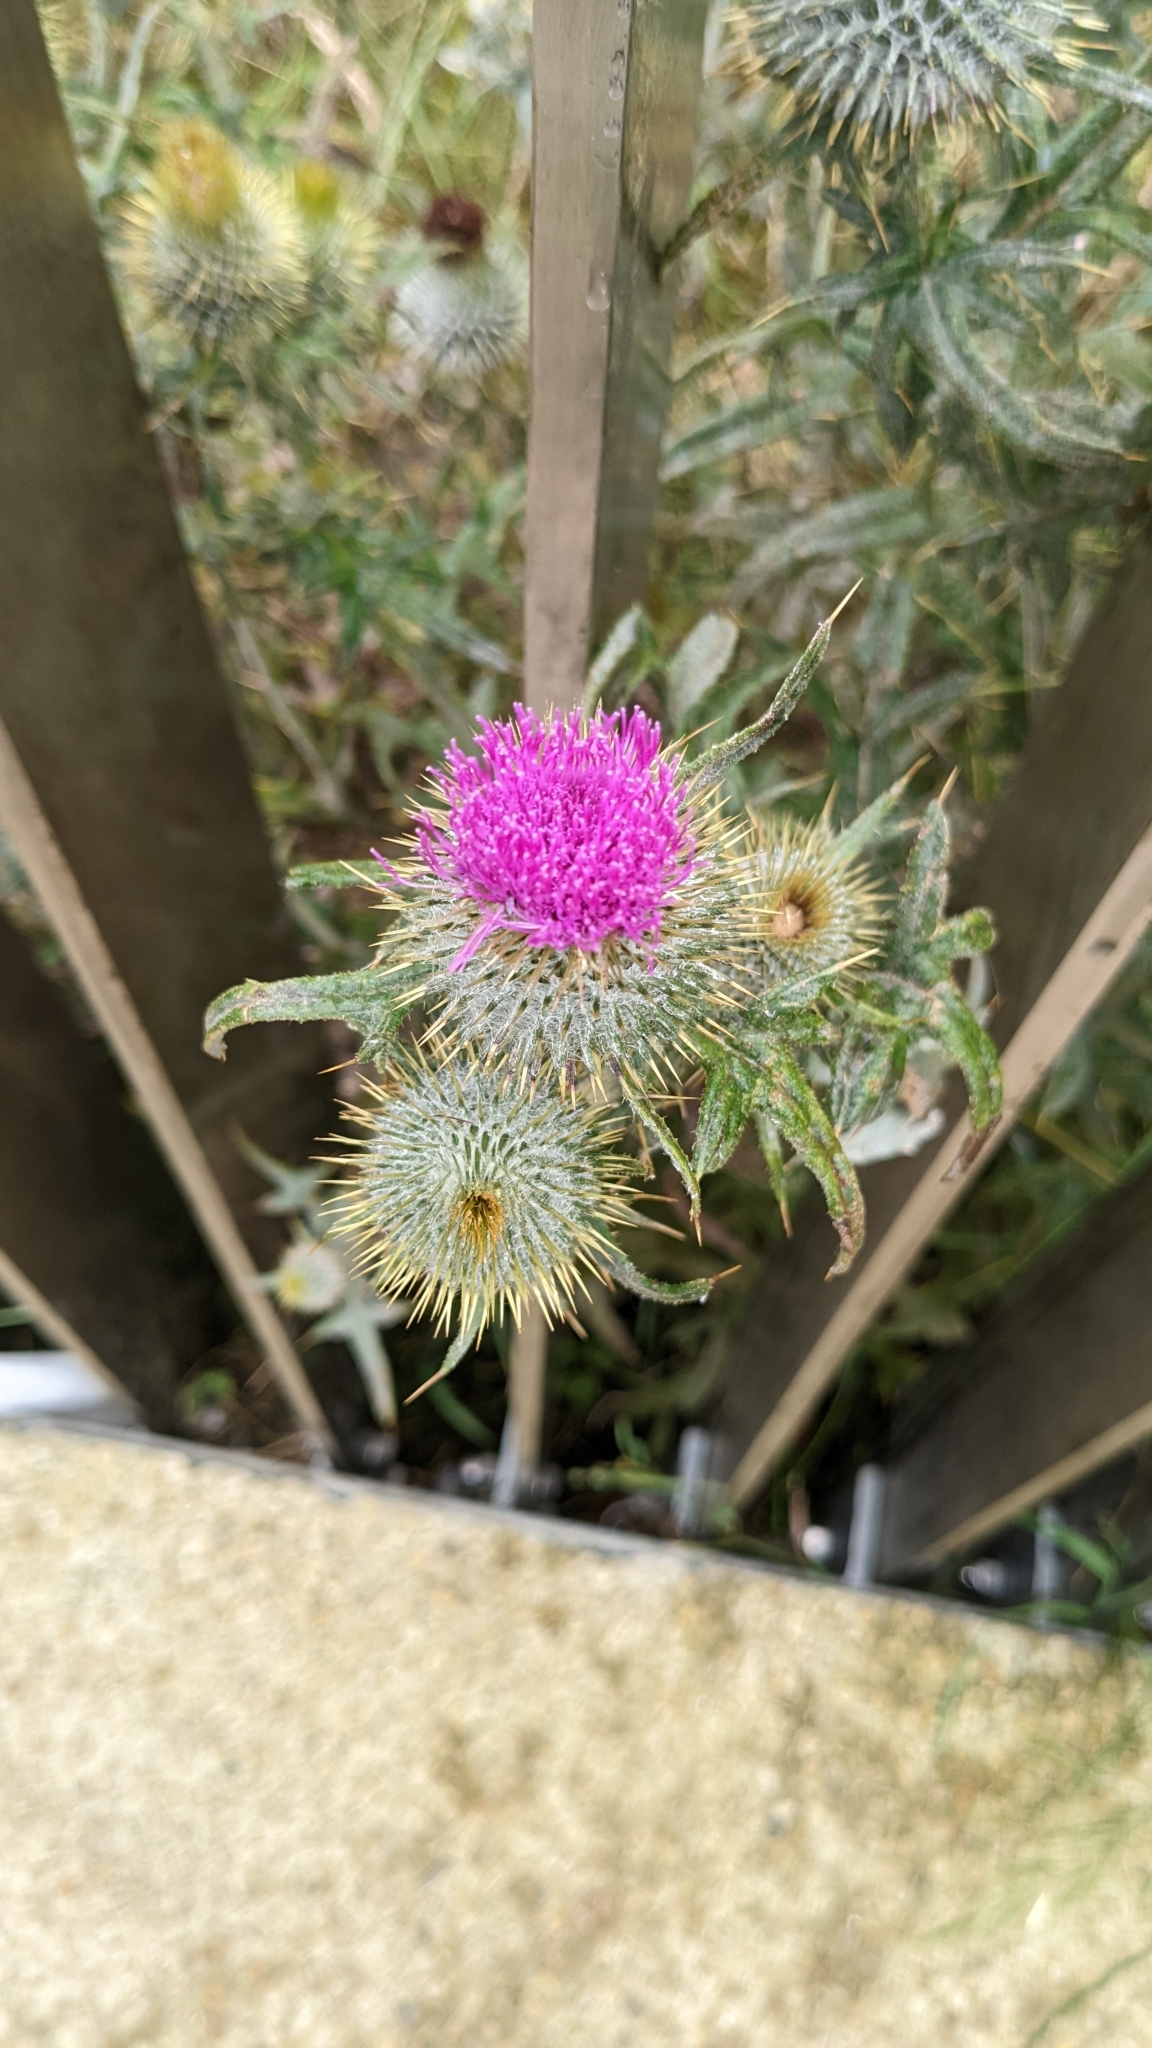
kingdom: Plantae
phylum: Tracheophyta
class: Magnoliopsida
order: Asterales
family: Asteraceae
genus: Cirsium
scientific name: Cirsium vulgare
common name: Bull thistle
